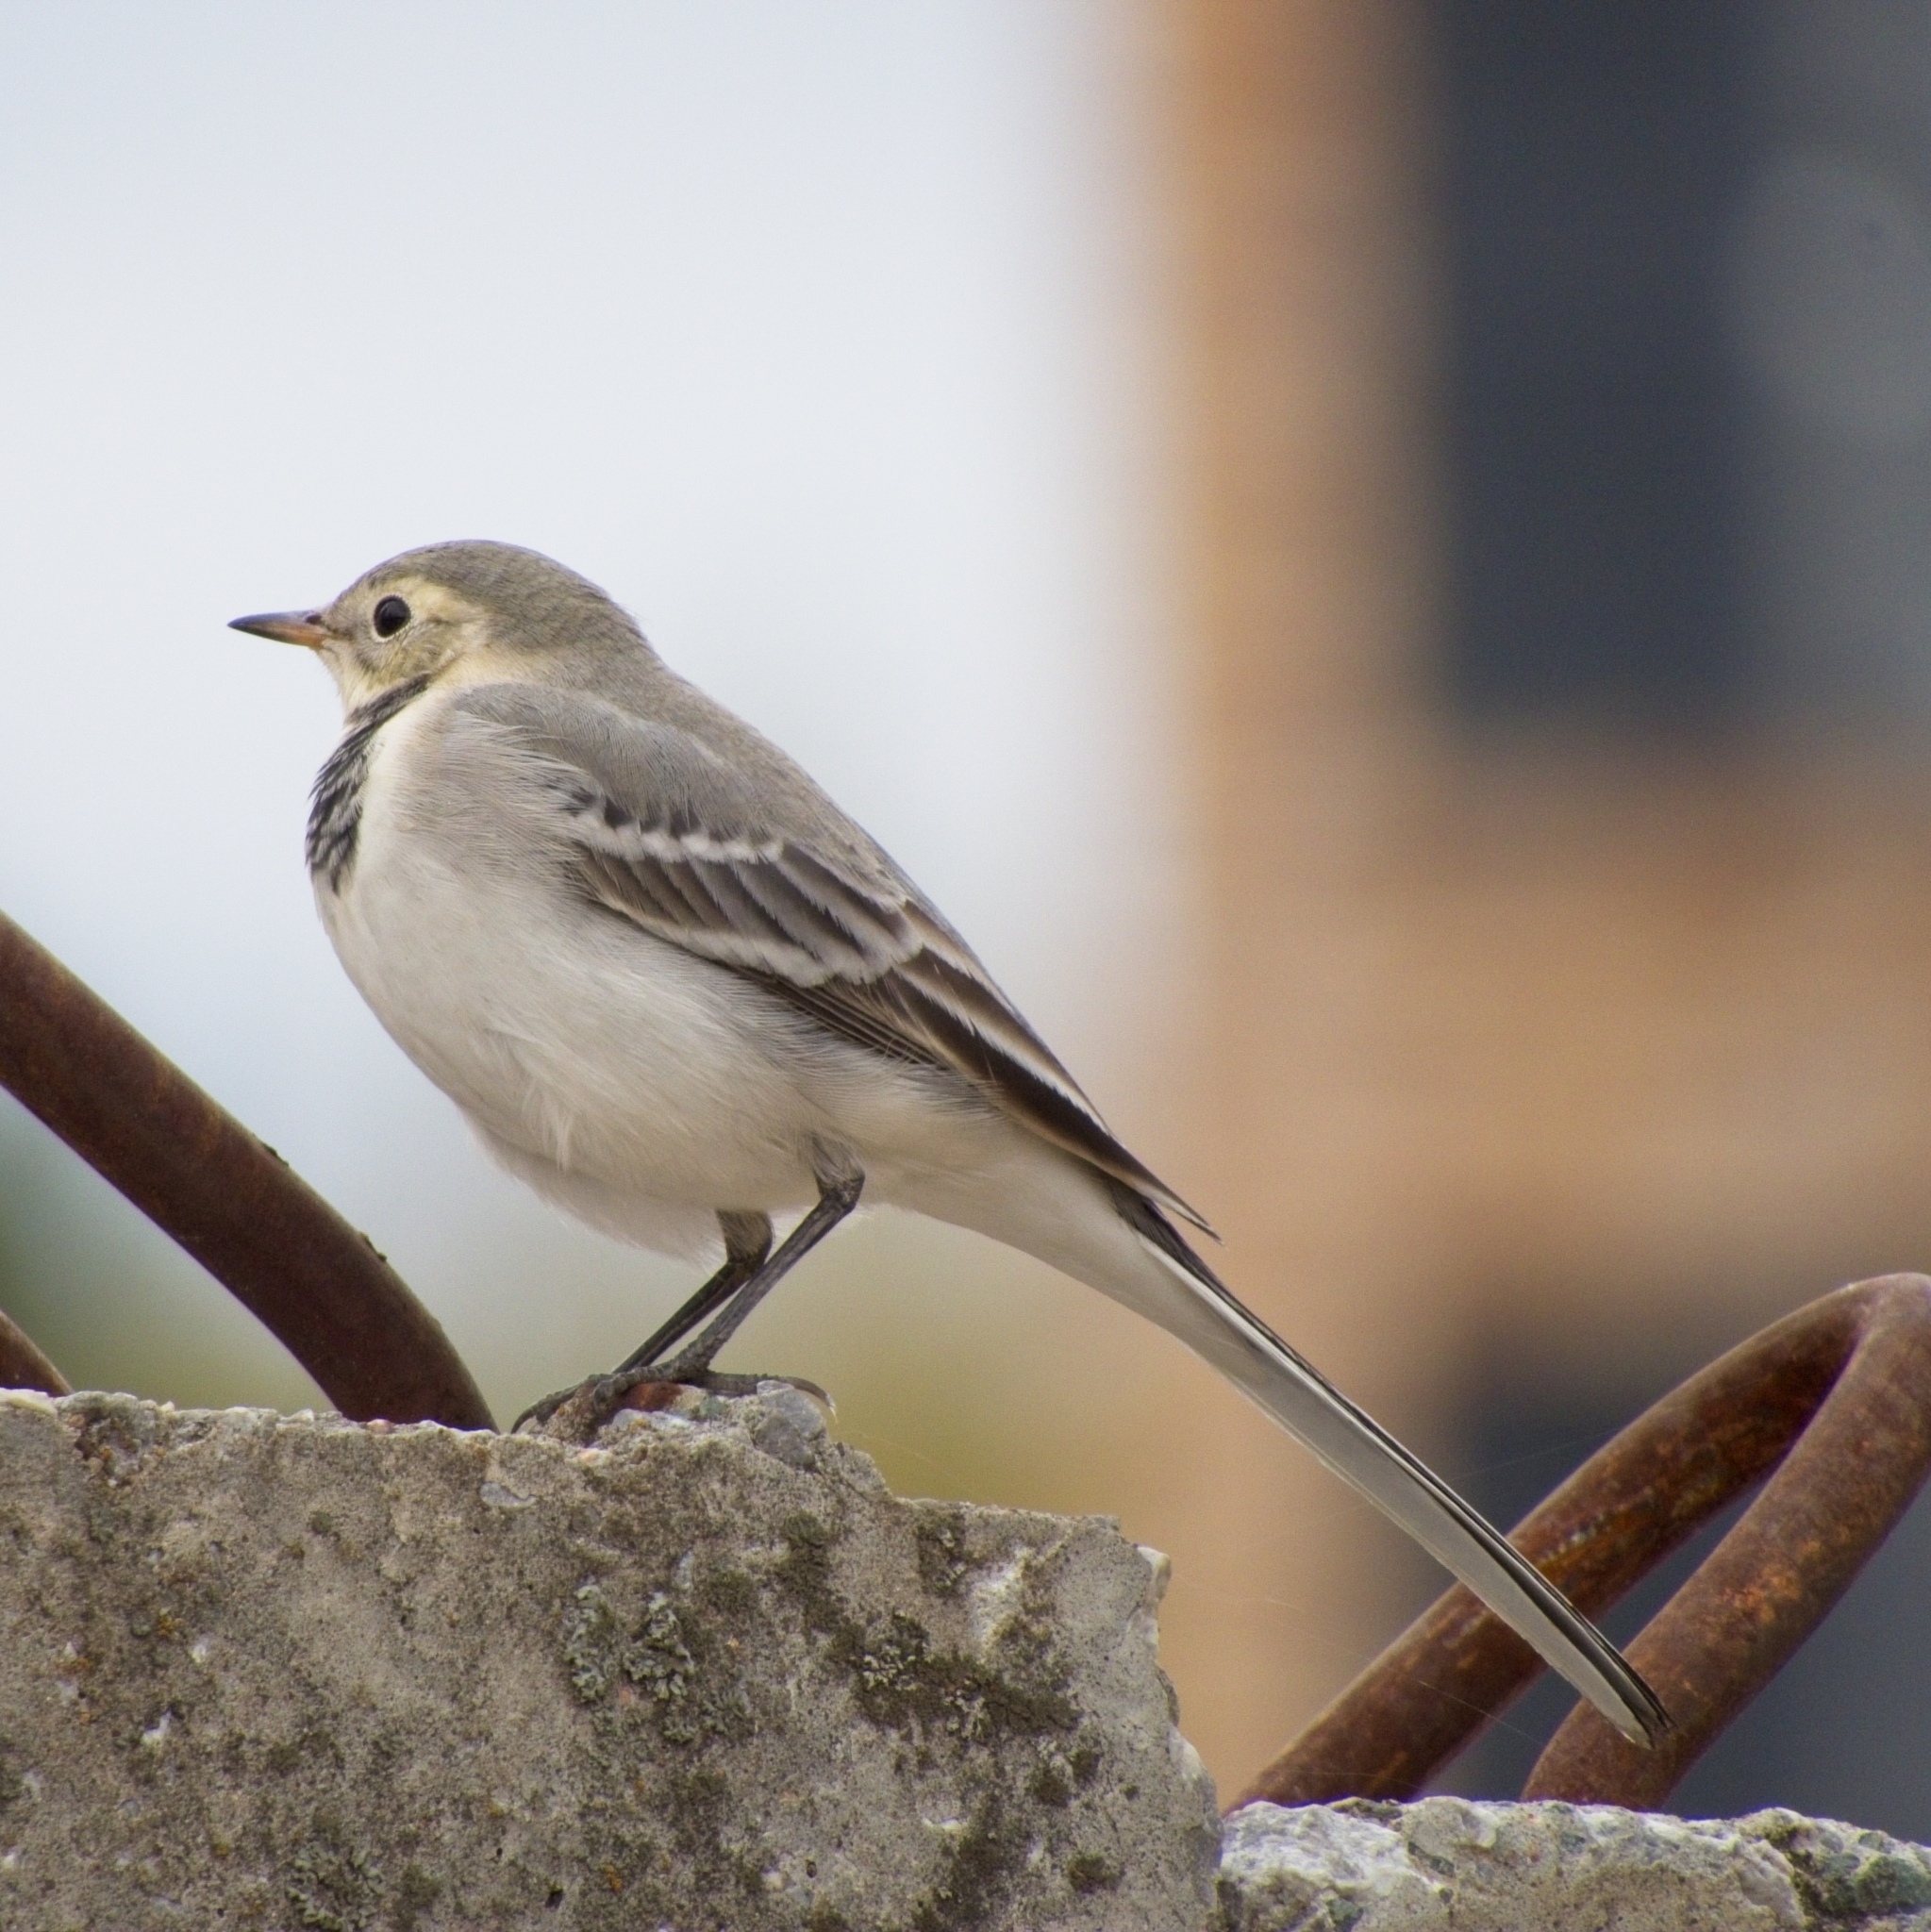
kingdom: Animalia
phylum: Chordata
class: Aves
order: Passeriformes
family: Motacillidae
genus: Motacilla
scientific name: Motacilla alba
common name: White wagtail
